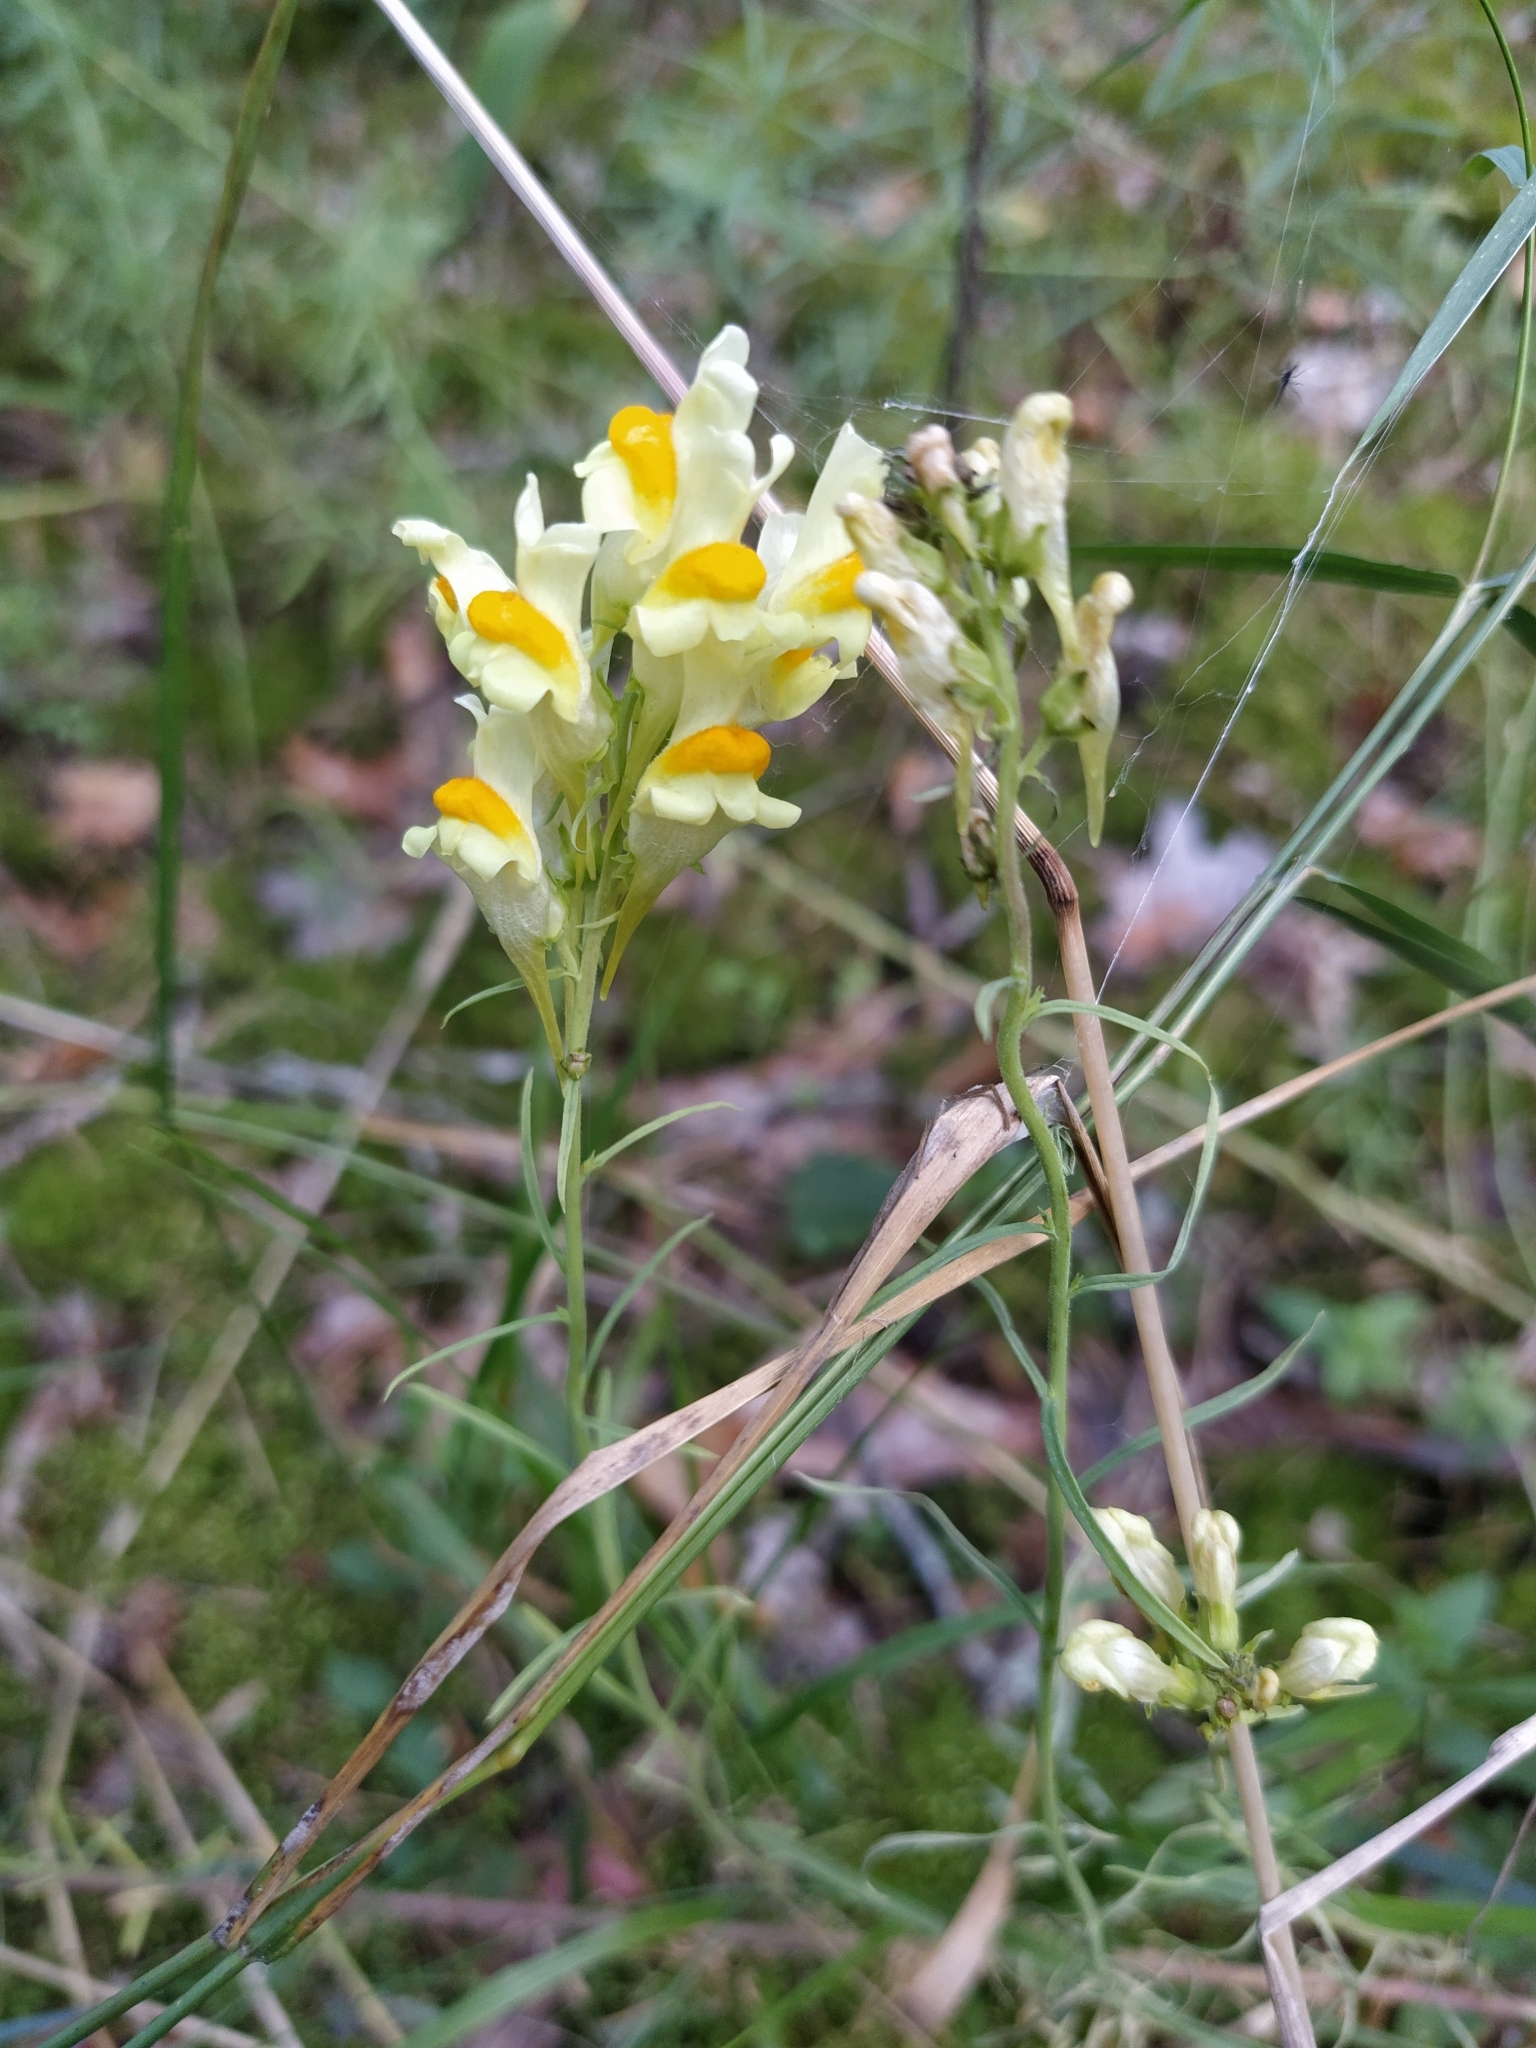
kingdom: Plantae
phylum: Tracheophyta
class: Magnoliopsida
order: Lamiales
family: Plantaginaceae
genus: Linaria
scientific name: Linaria vulgaris
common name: Butter and eggs
